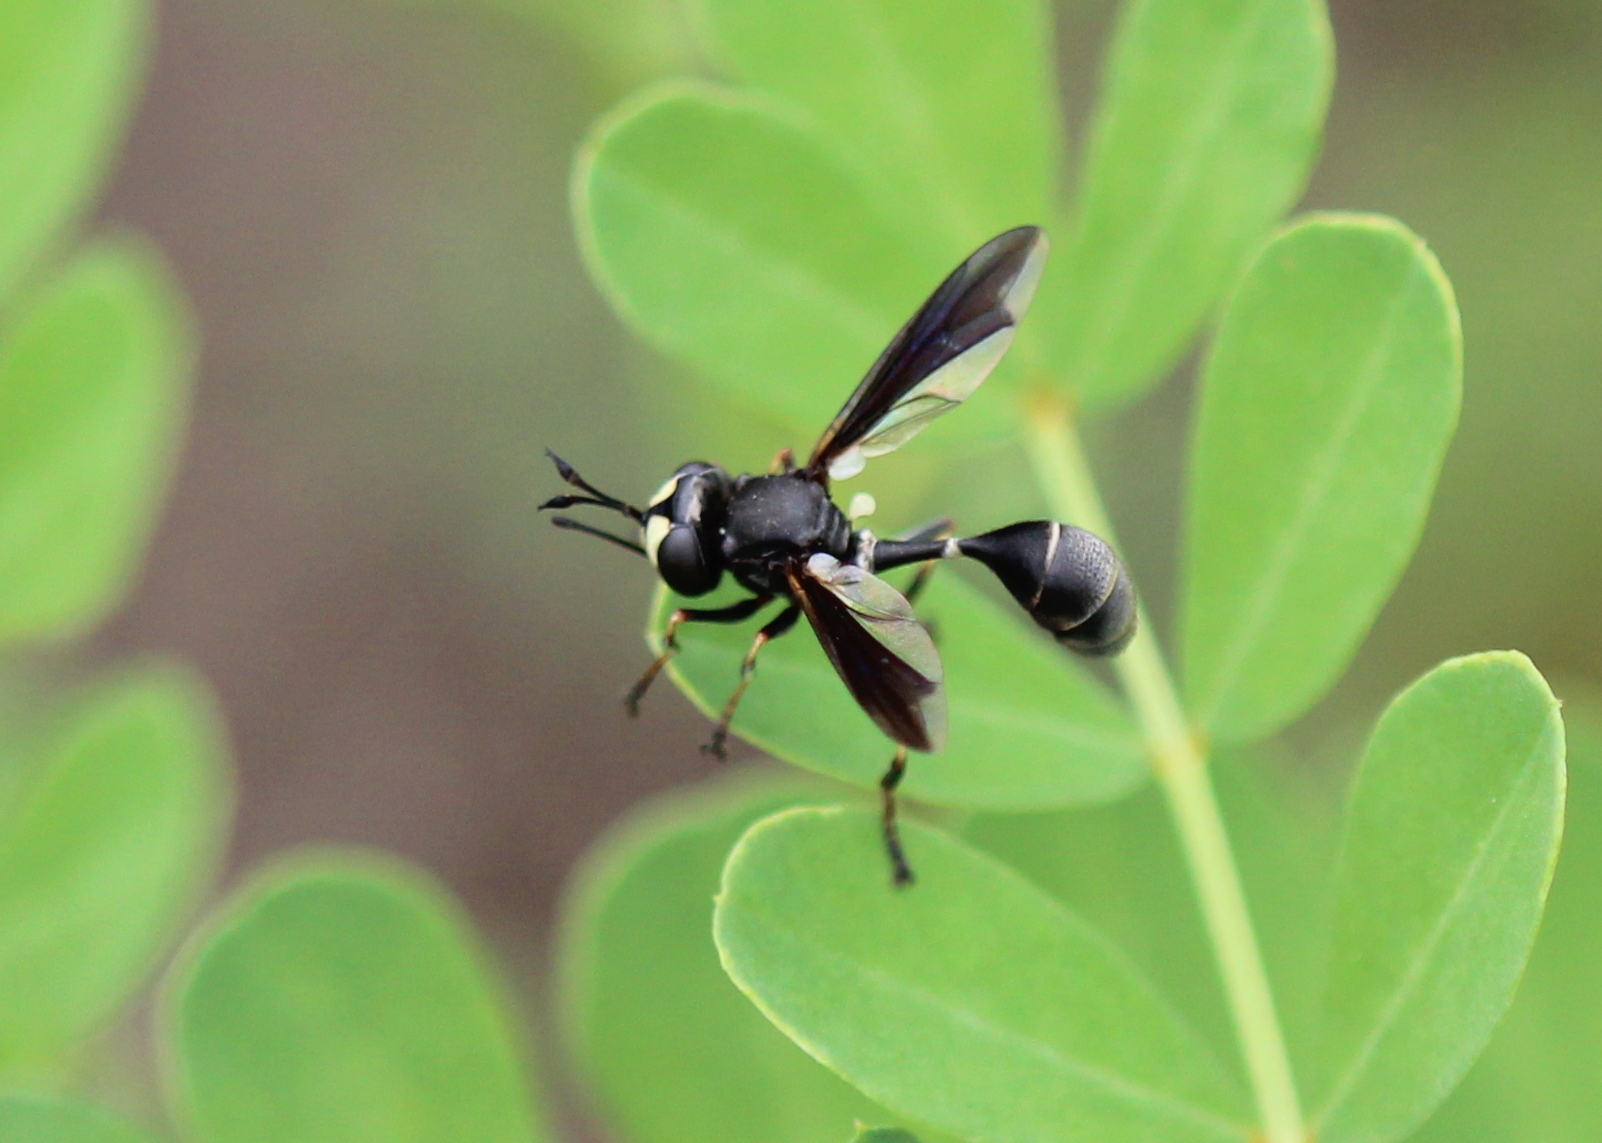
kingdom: Animalia
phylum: Arthropoda
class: Insecta
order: Diptera
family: Conopidae
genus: Physocephala
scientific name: Physocephala tibialis
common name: Common eastern physocephala
